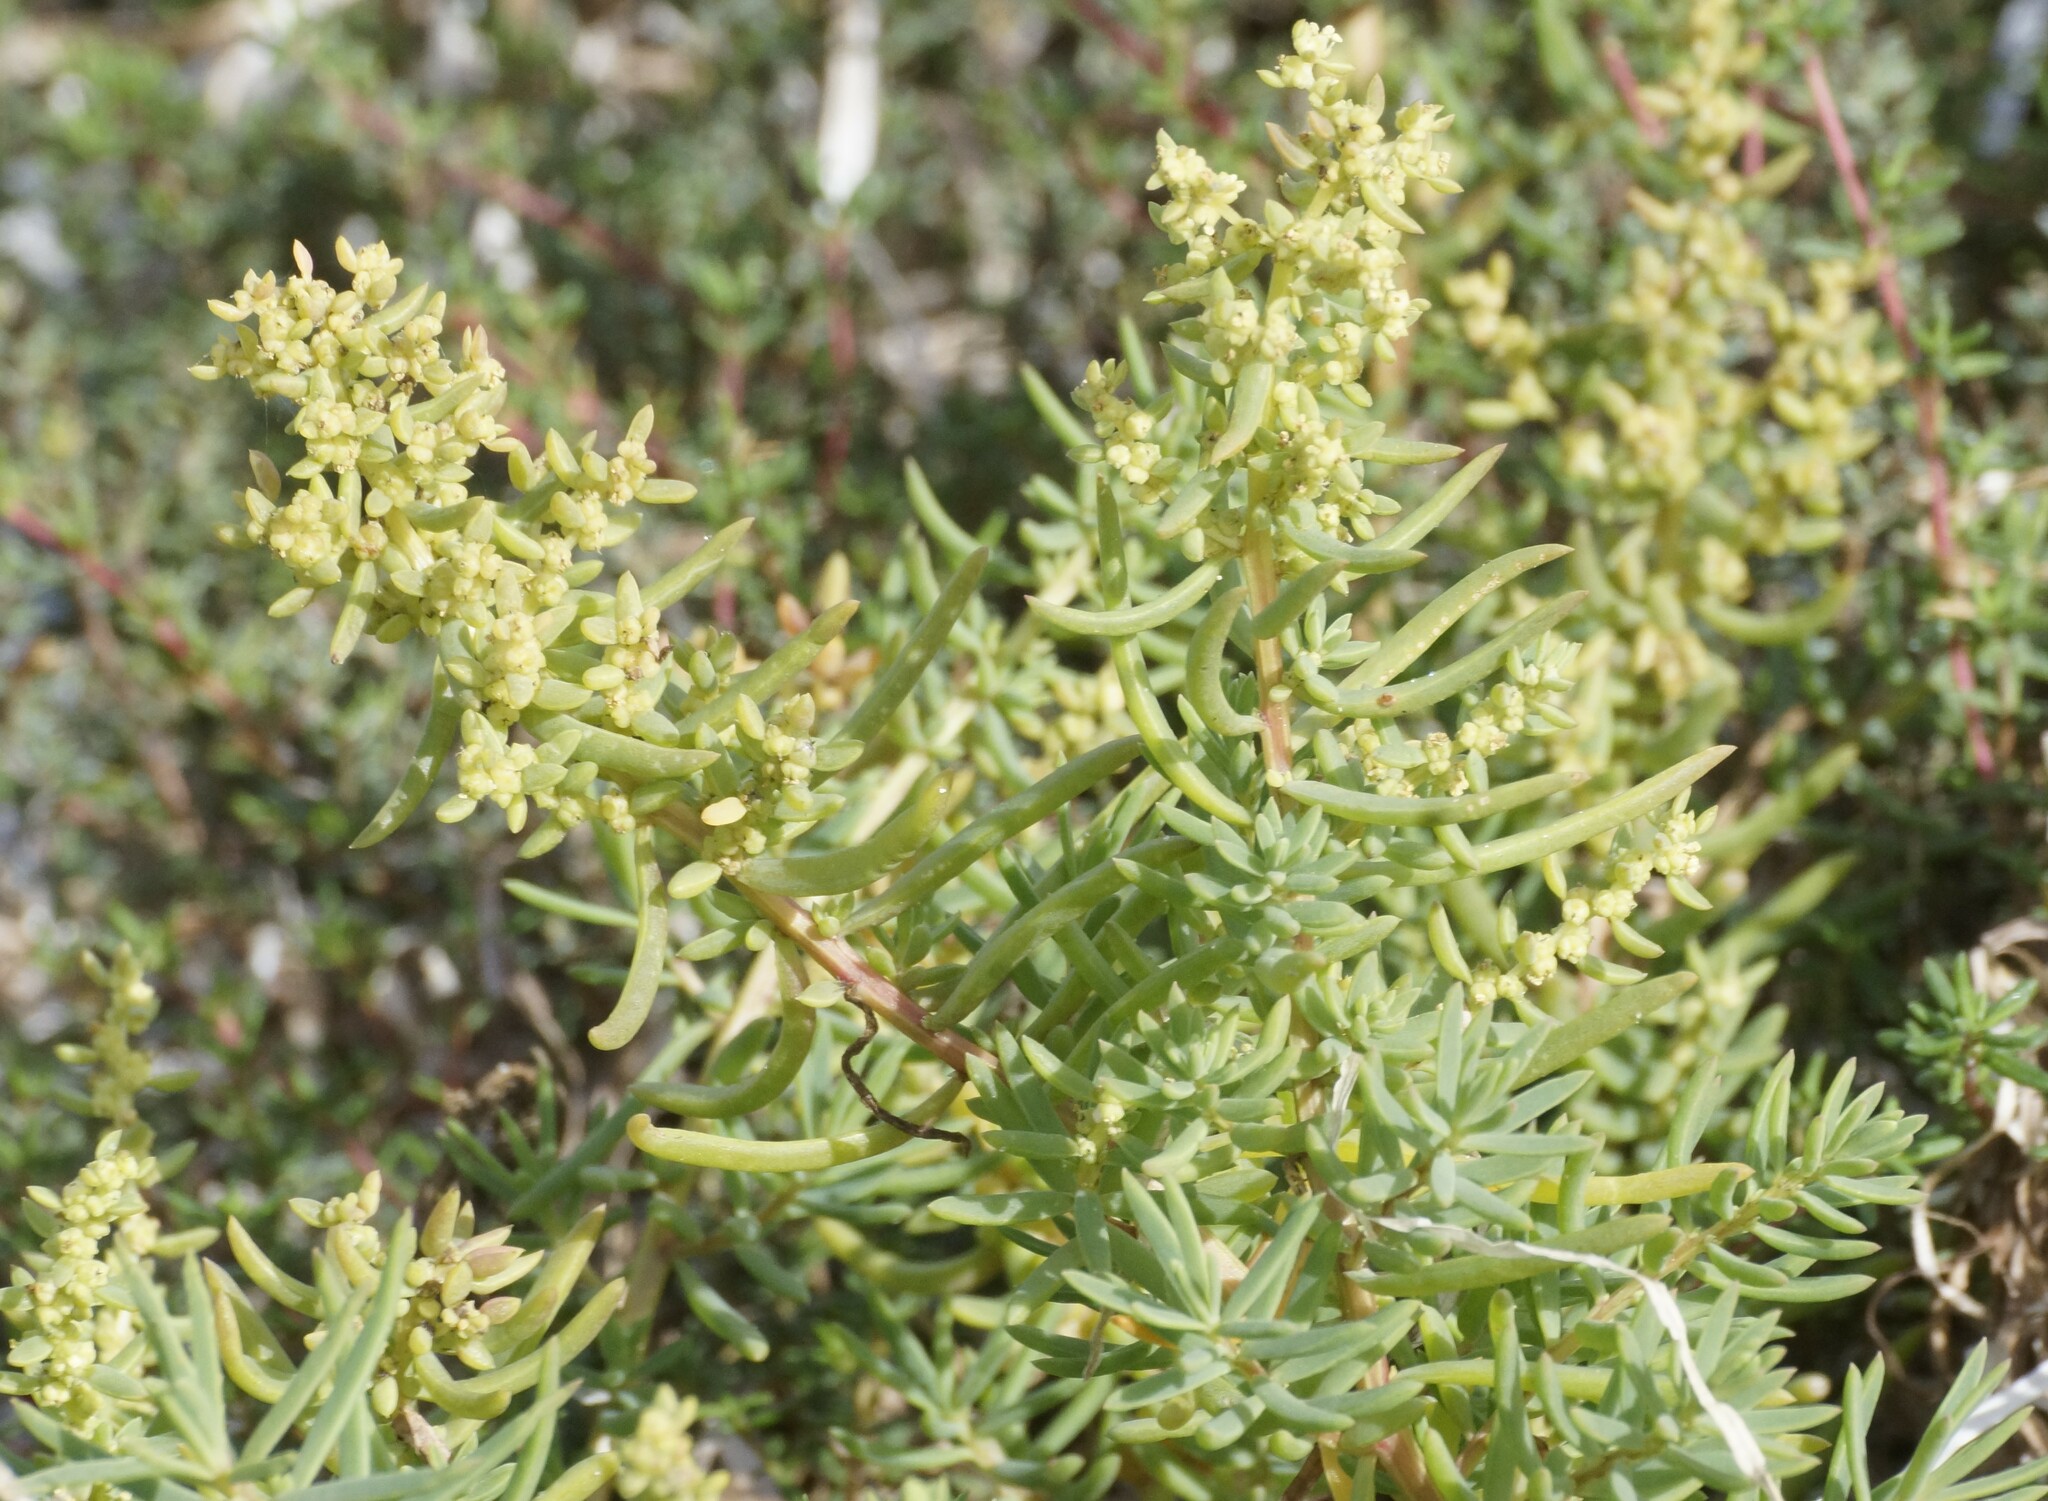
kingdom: Plantae
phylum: Tracheophyta
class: Magnoliopsida
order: Caryophyllales
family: Amaranthaceae
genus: Suaeda
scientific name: Suaeda australis
